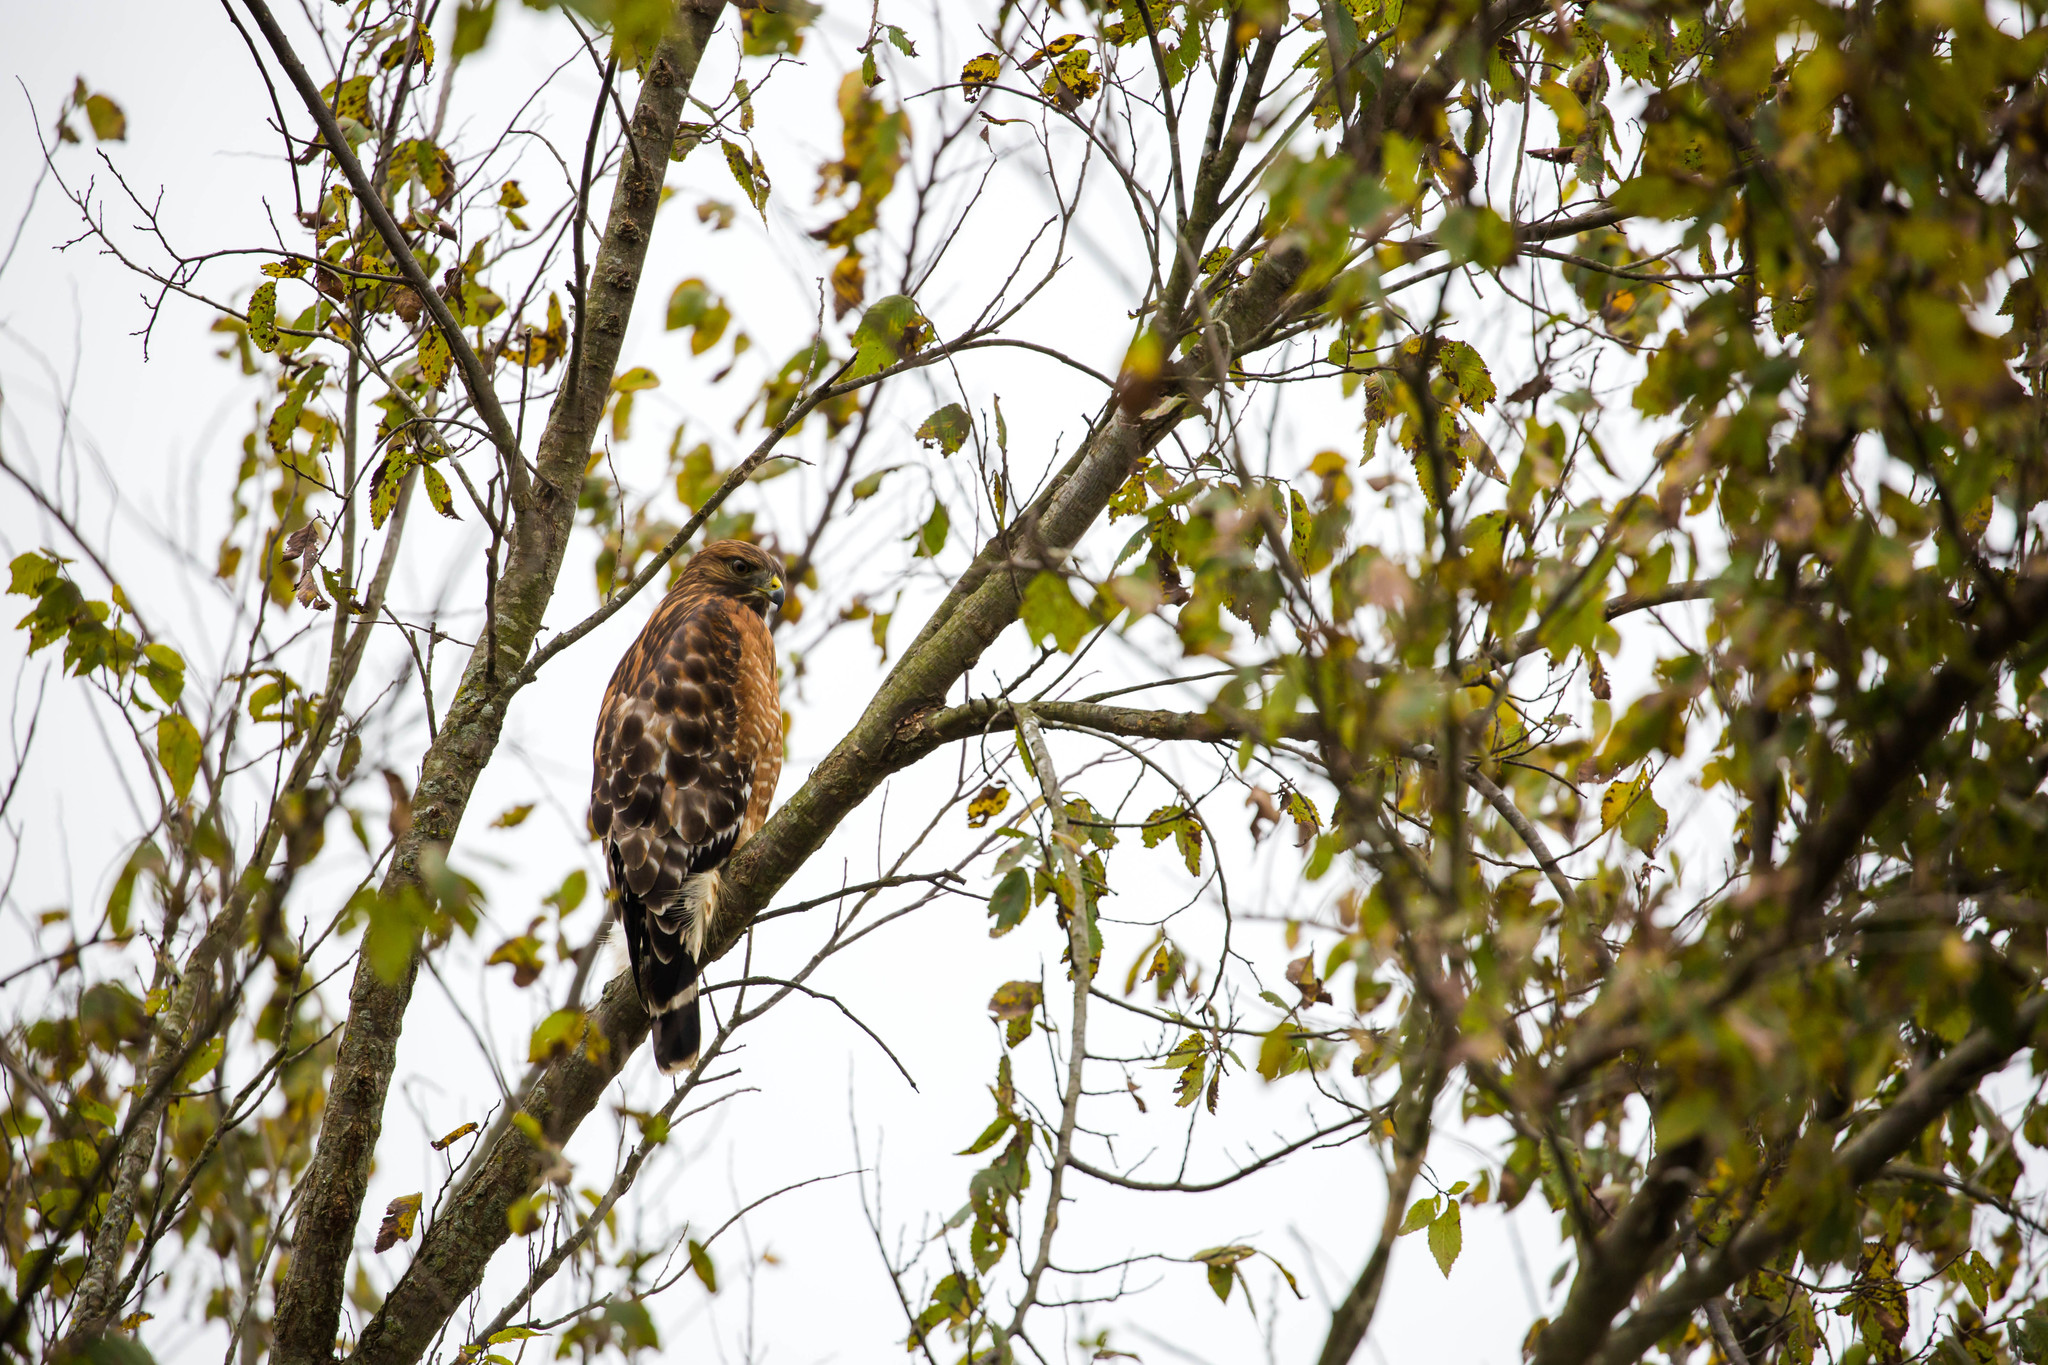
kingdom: Animalia
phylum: Chordata
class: Aves
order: Accipitriformes
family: Accipitridae
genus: Buteo
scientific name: Buteo lineatus
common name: Red-shouldered hawk
